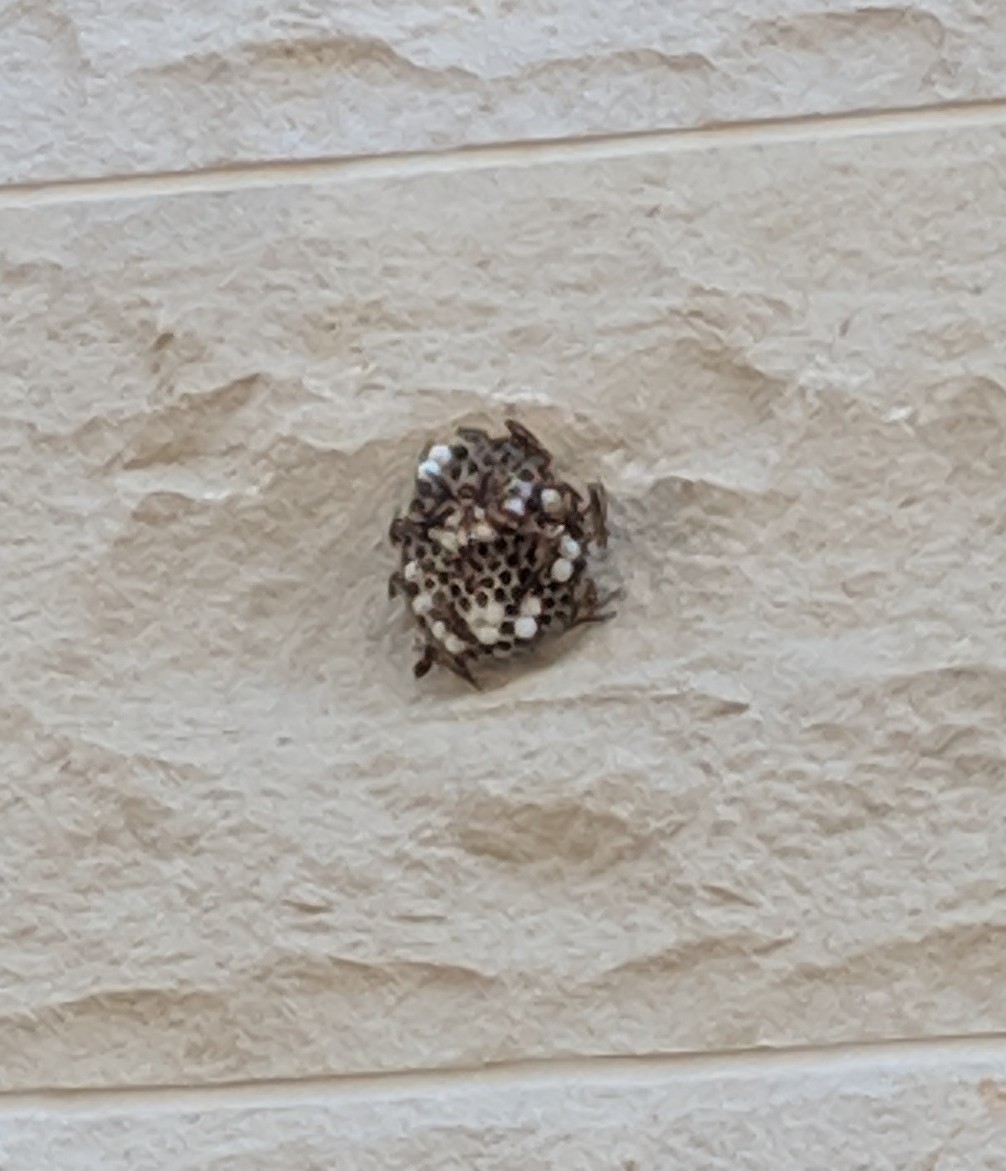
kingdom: Animalia
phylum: Arthropoda
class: Insecta
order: Hymenoptera
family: Vespidae
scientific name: Vespidae
